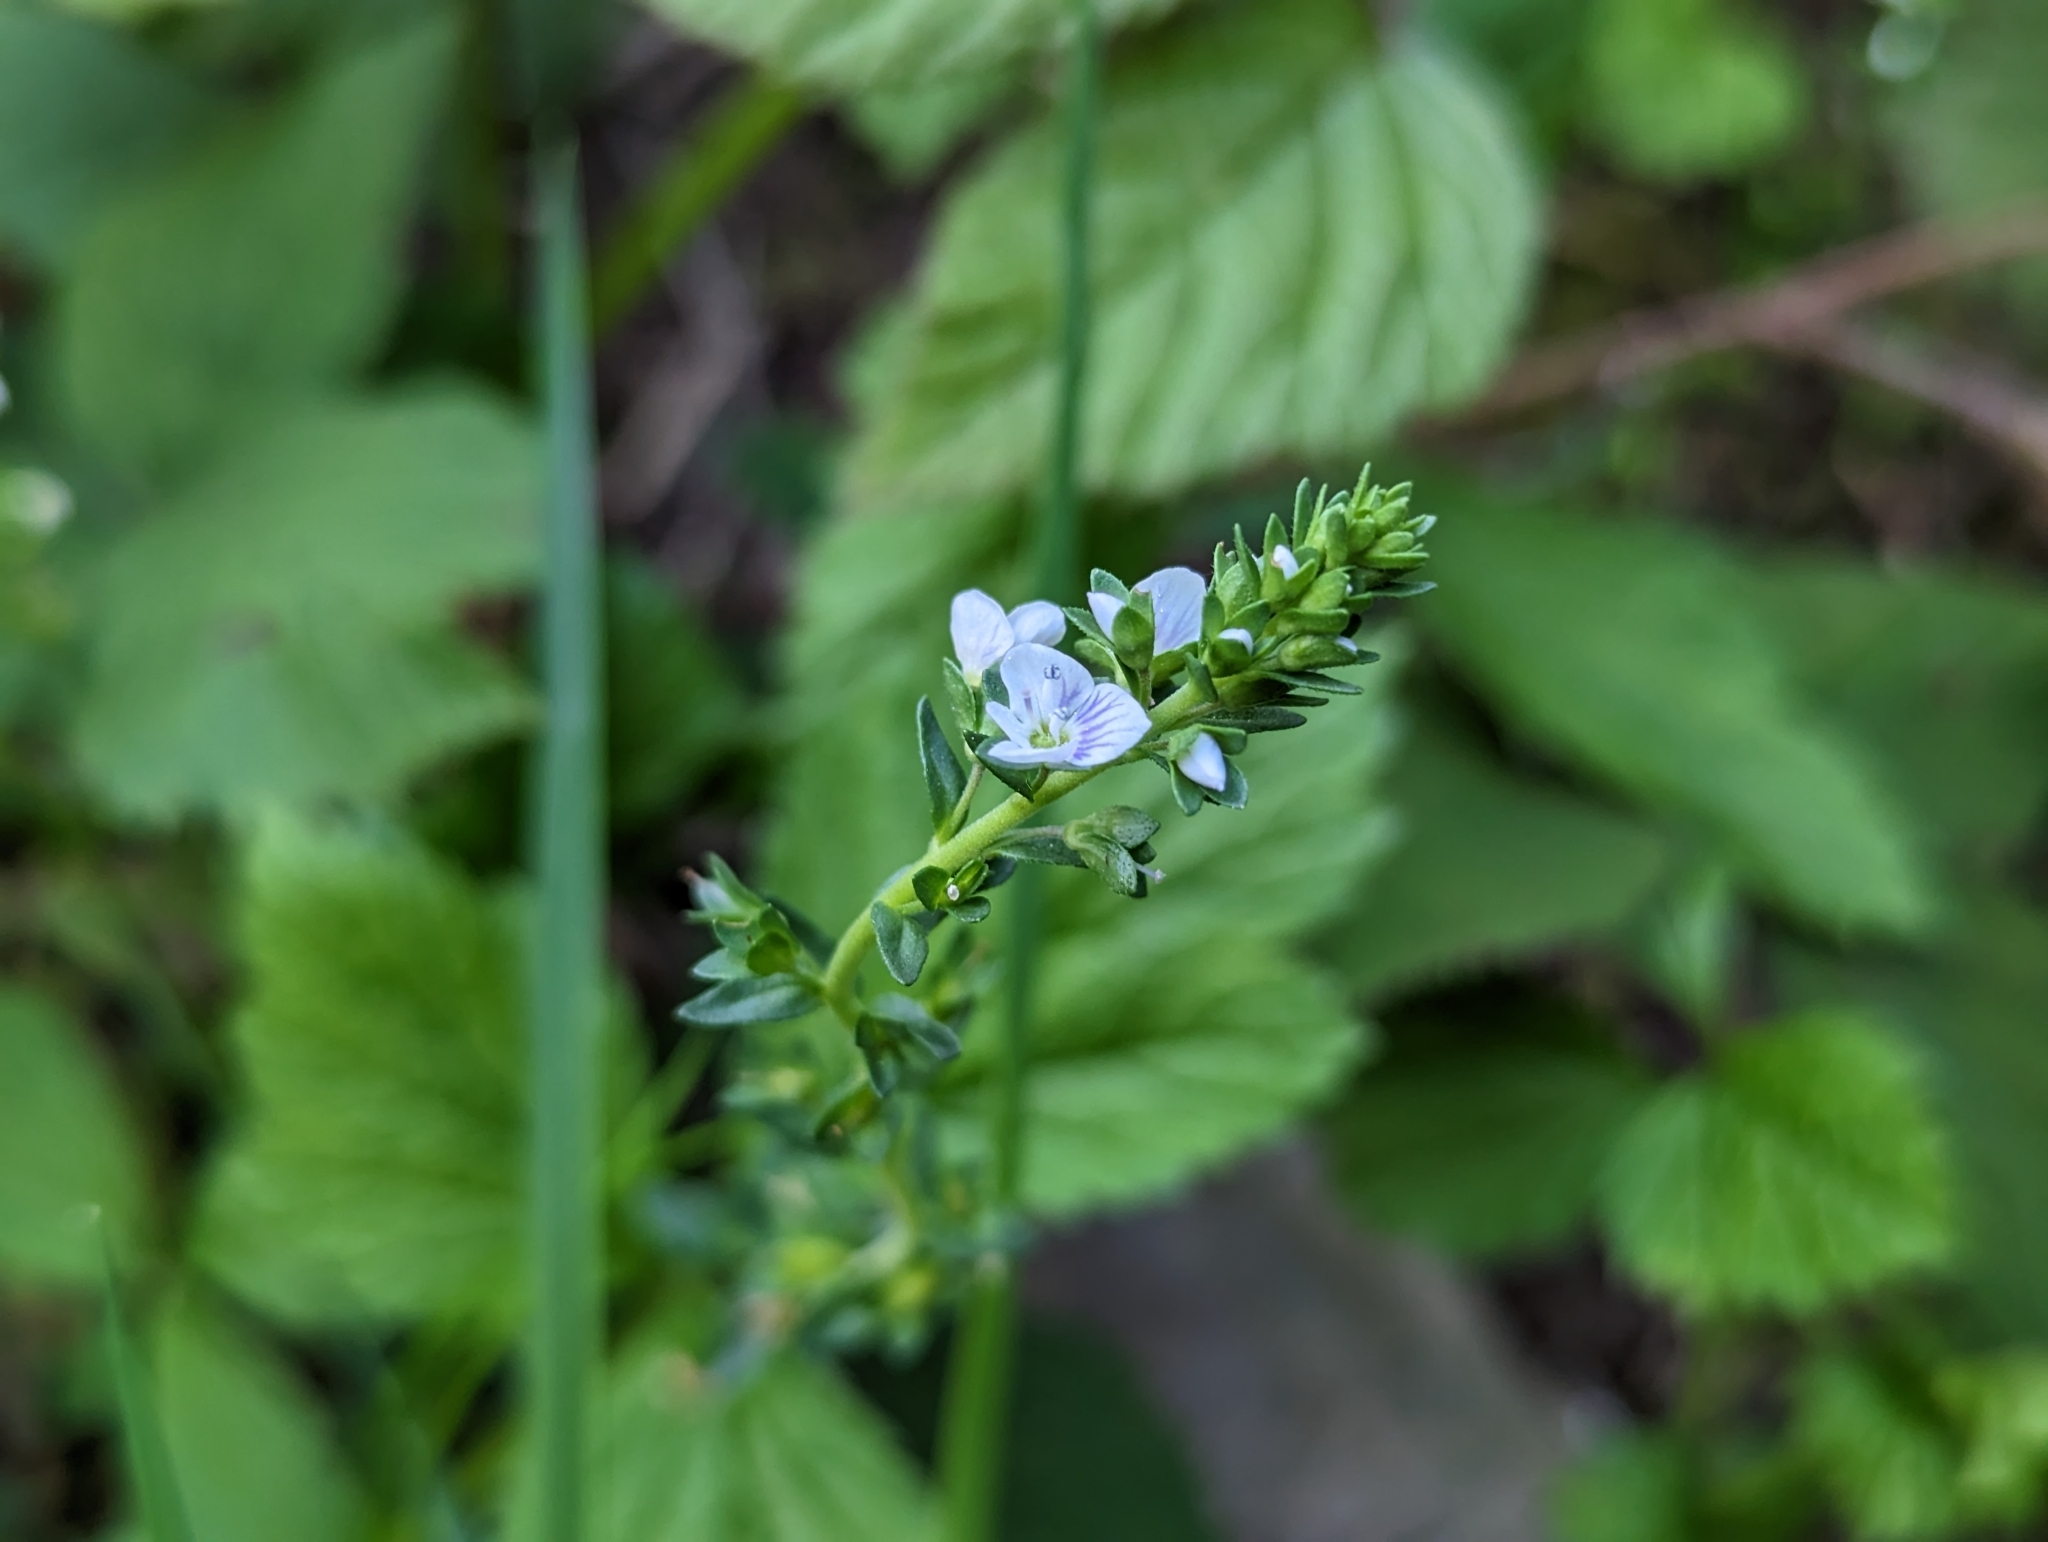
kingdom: Plantae
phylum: Tracheophyta
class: Magnoliopsida
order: Lamiales
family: Plantaginaceae
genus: Veronica
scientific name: Veronica serpyllifolia
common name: Thyme-leaved speedwell
